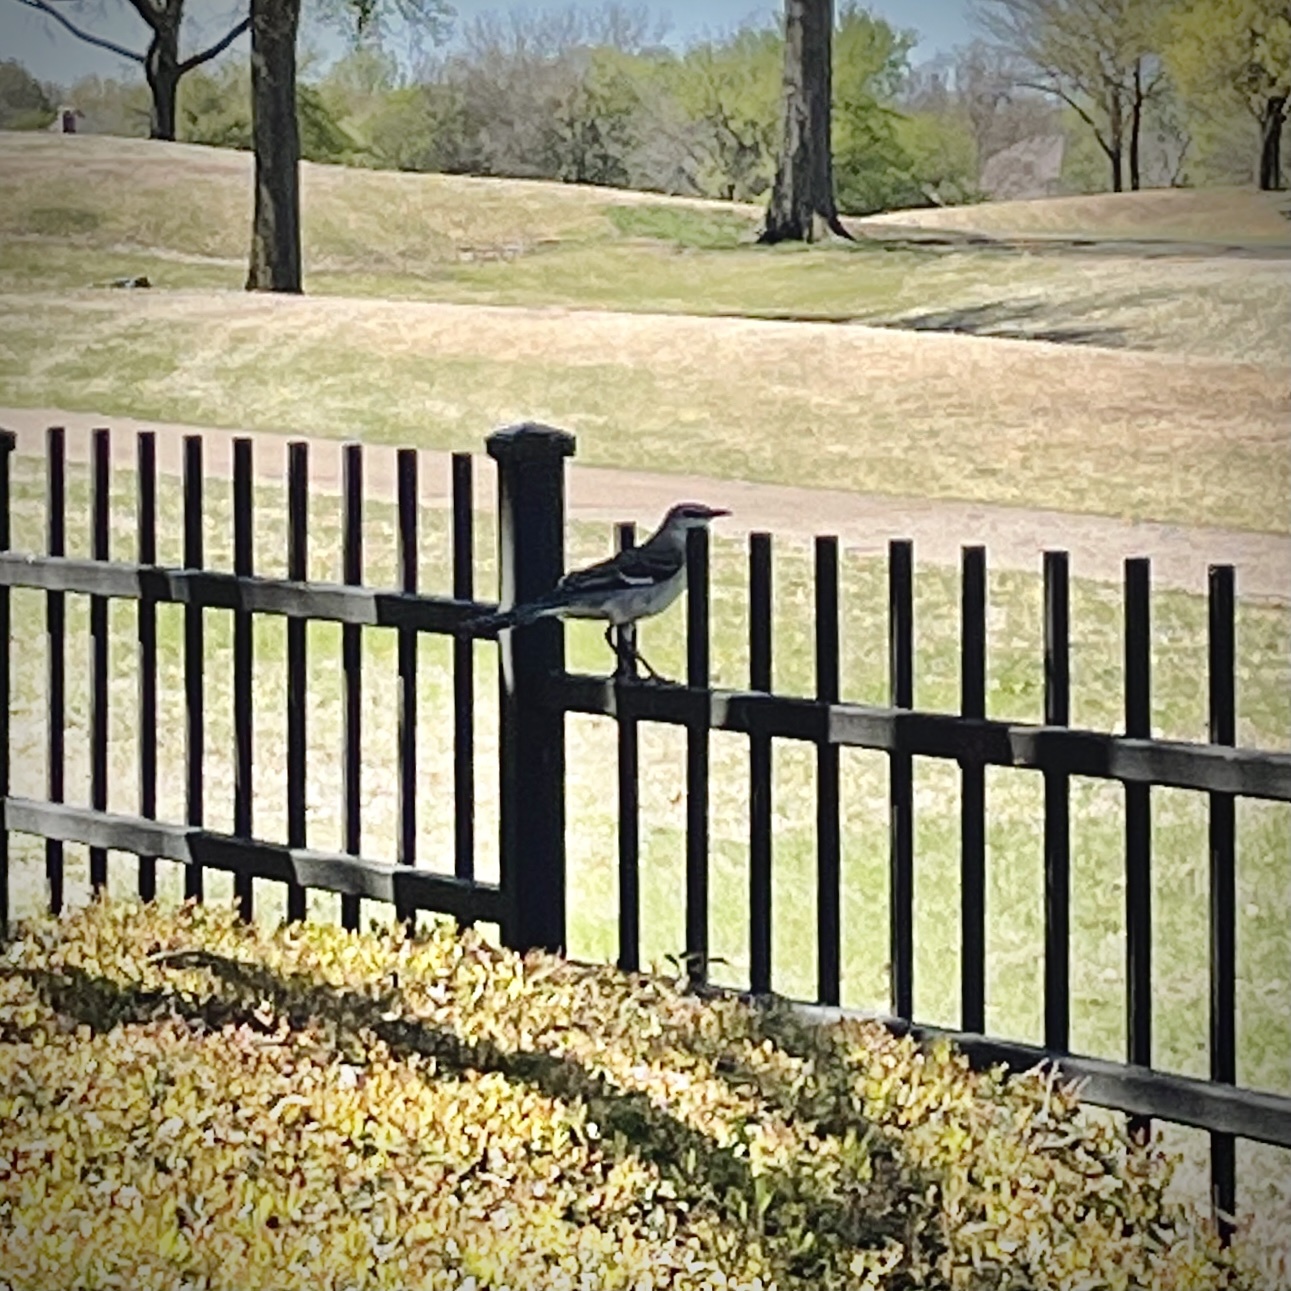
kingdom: Animalia
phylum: Chordata
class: Aves
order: Passeriformes
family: Mimidae
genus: Mimus
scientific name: Mimus polyglottos
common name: Northern mockingbird
